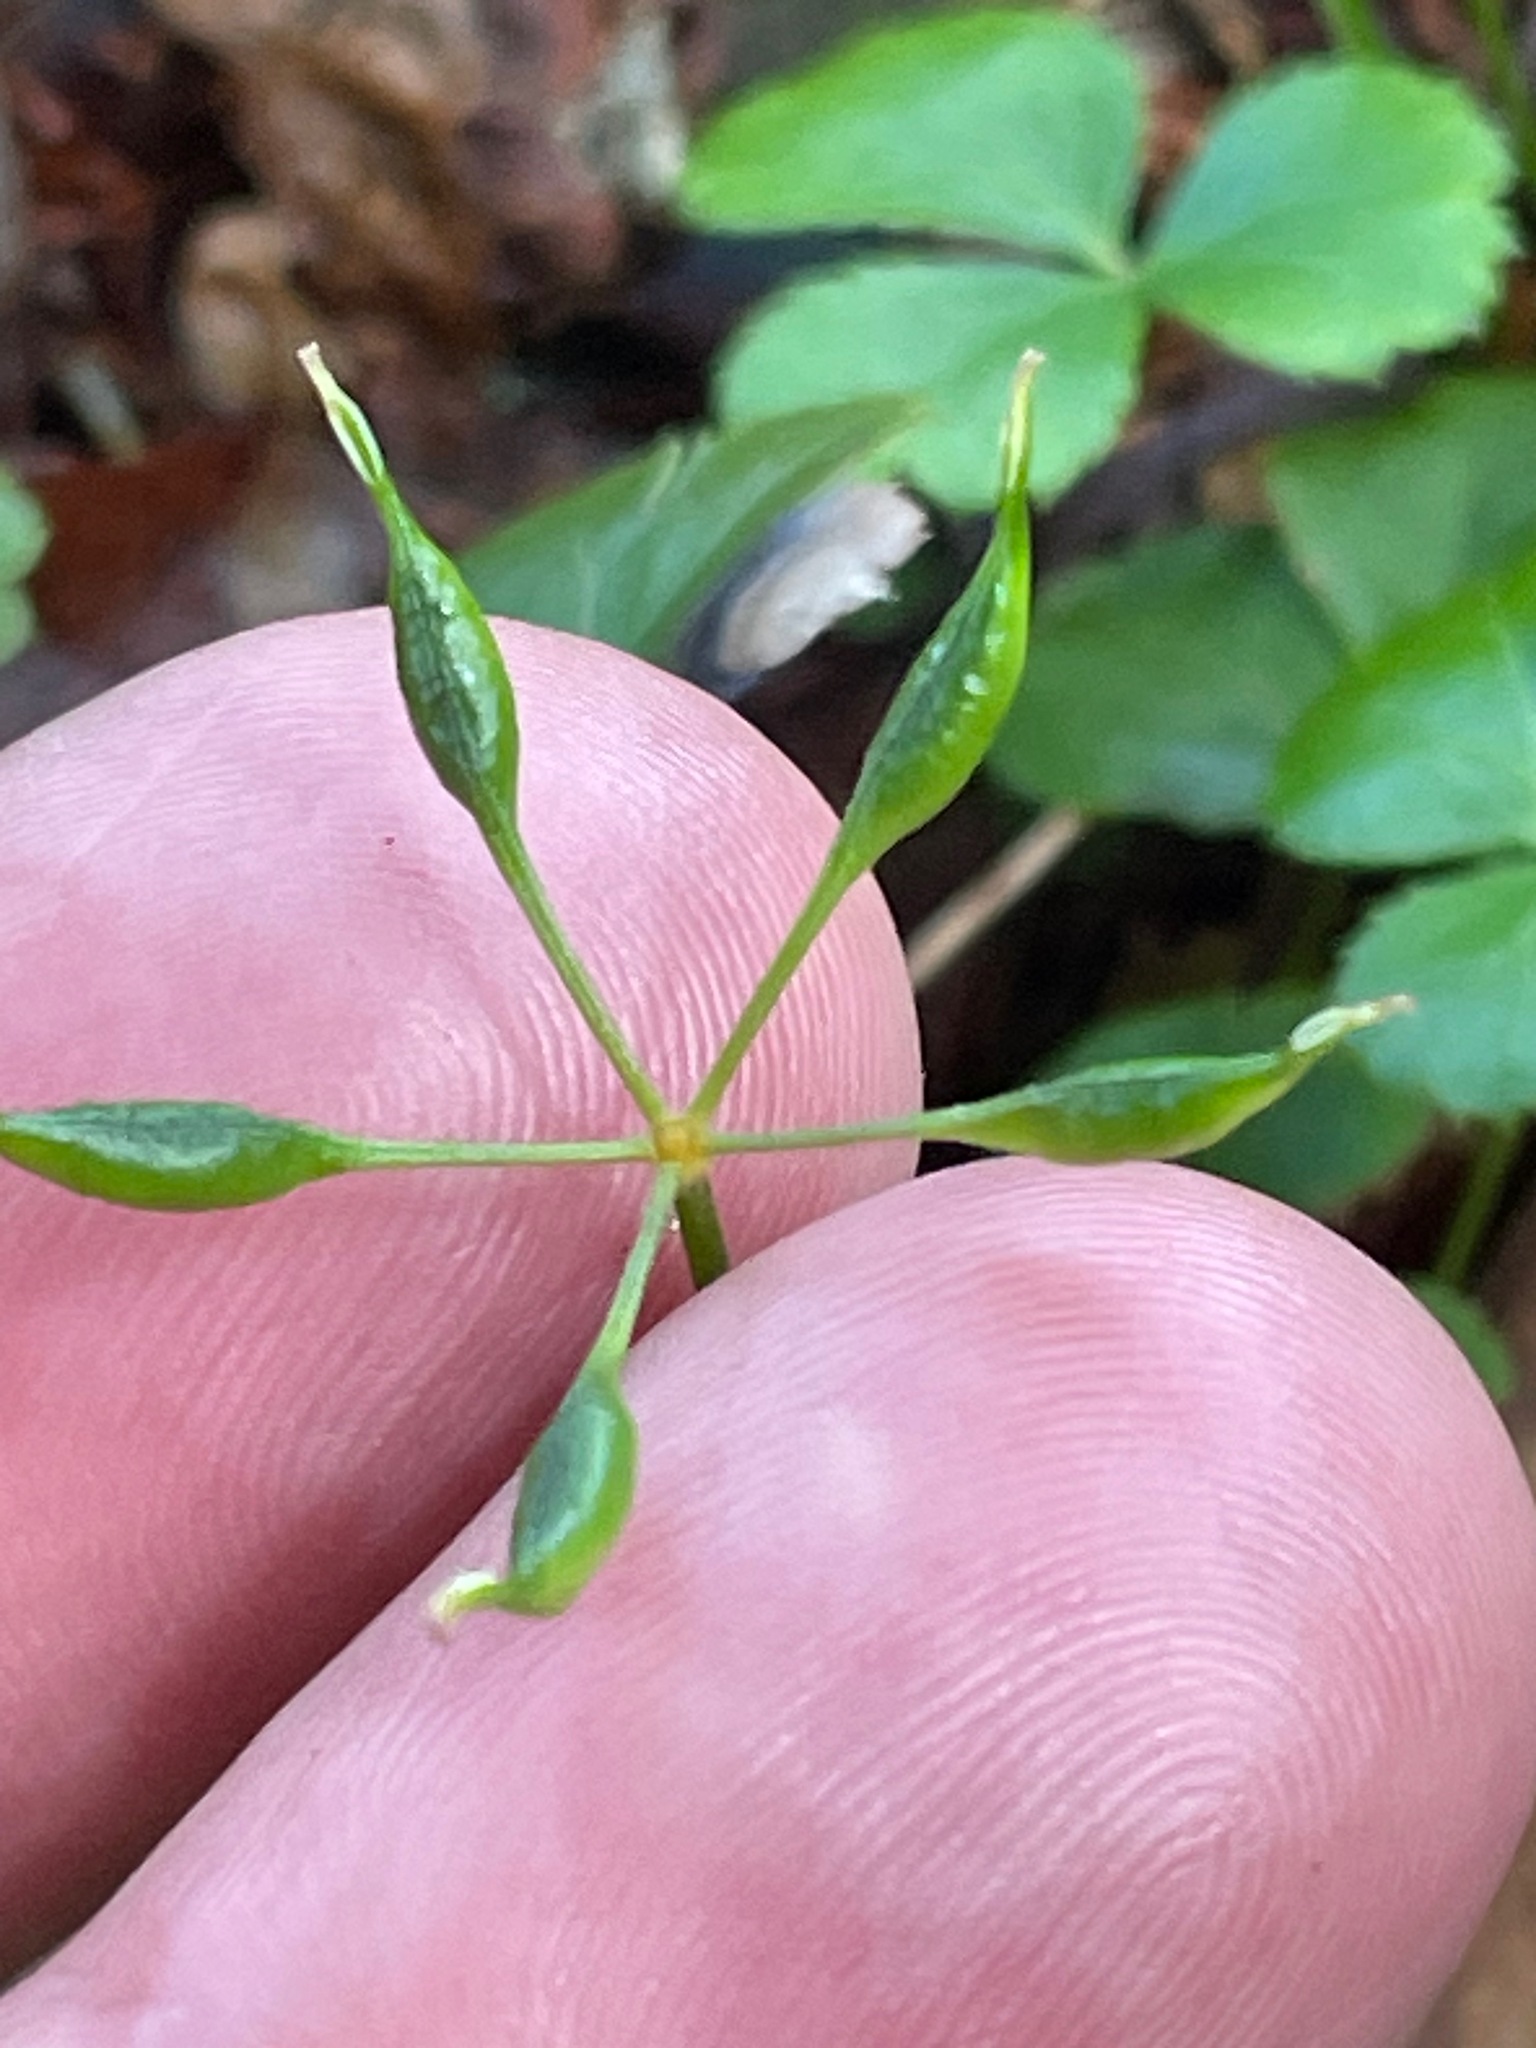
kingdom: Plantae
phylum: Tracheophyta
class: Magnoliopsida
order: Ranunculales
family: Ranunculaceae
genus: Coptis
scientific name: Coptis trifolia
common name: Canker-root
